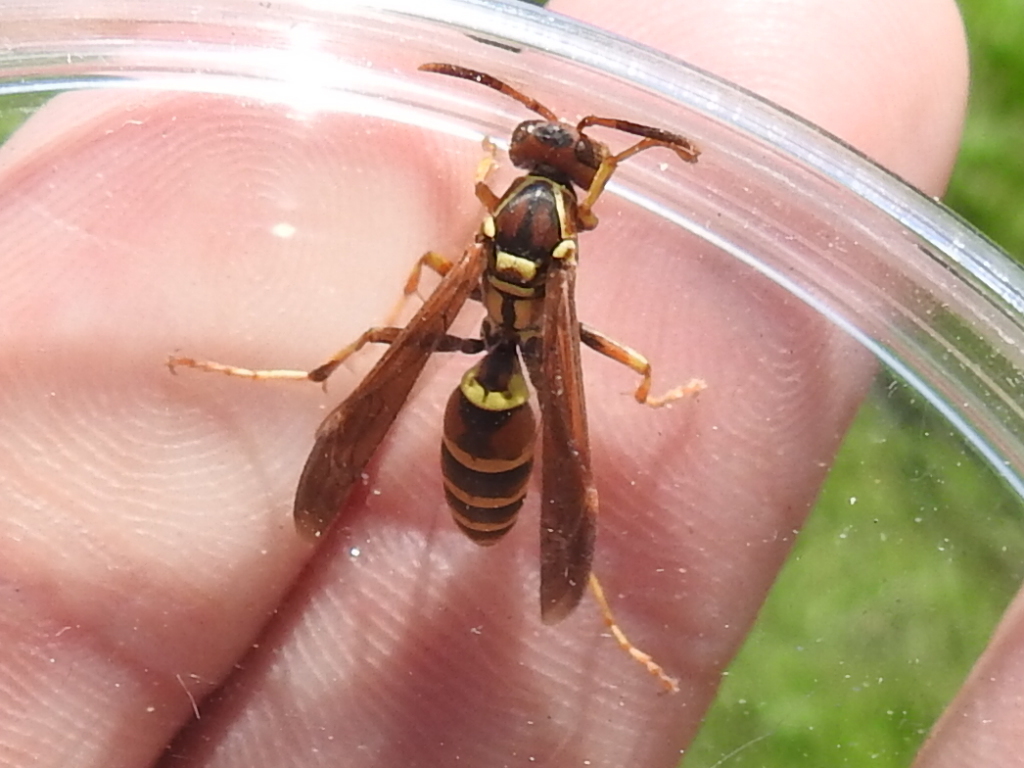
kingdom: Animalia
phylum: Arthropoda
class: Insecta
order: Hymenoptera
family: Eumenidae
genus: Polistes
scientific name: Polistes dorsalis
